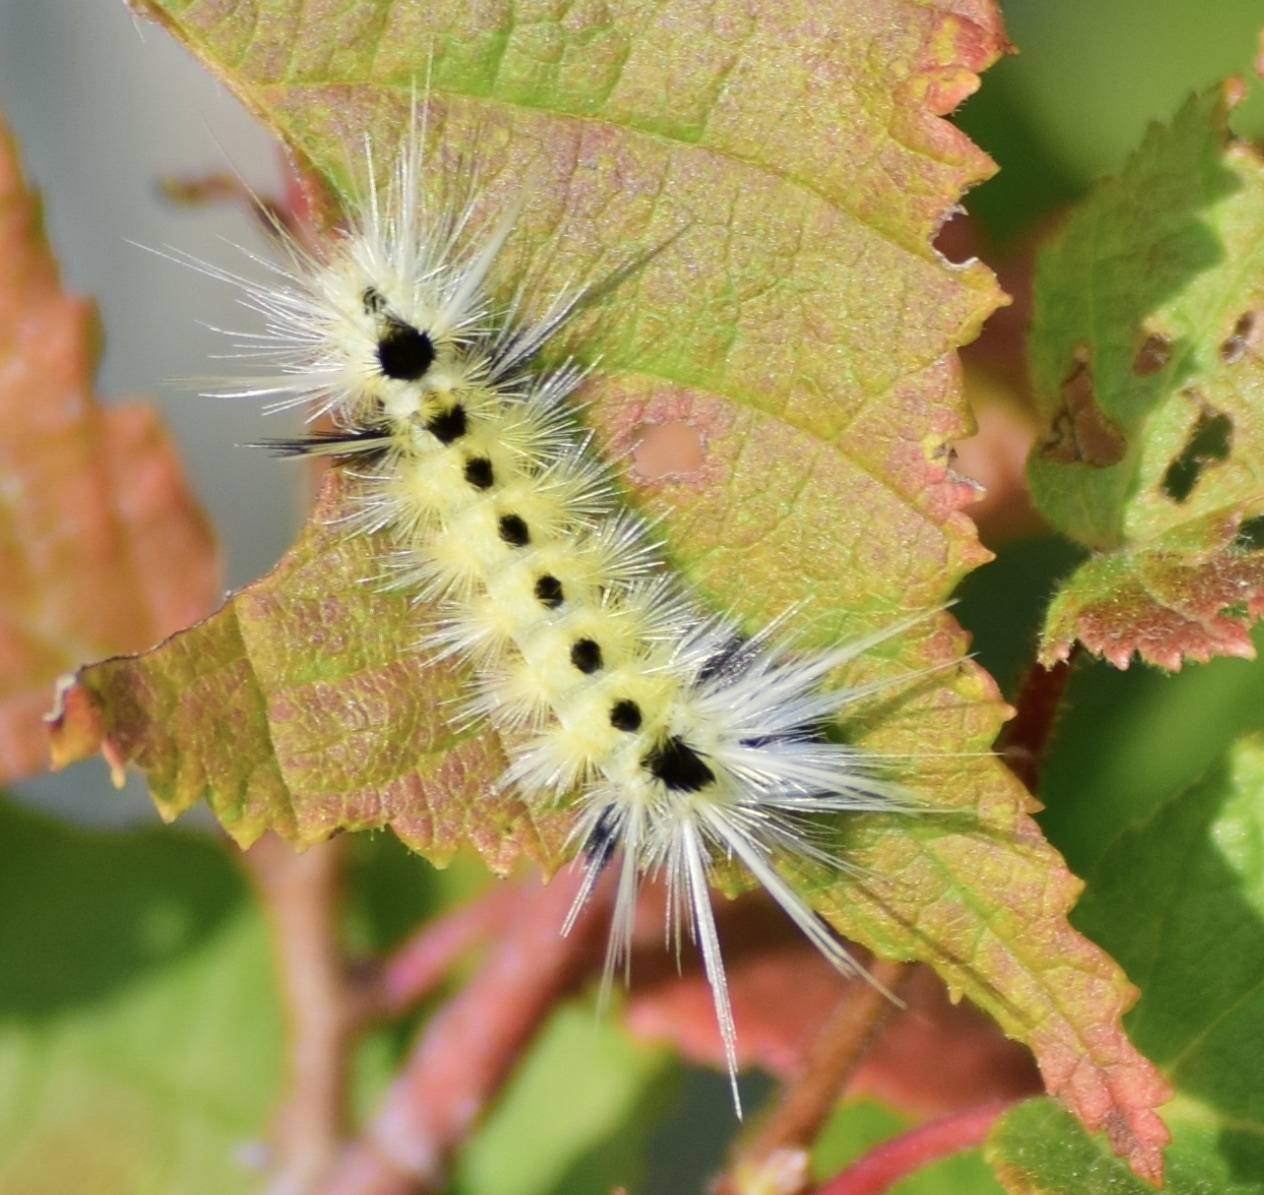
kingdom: Animalia
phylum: Arthropoda
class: Insecta
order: Lepidoptera
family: Erebidae
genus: Lophocampa
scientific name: Lophocampa maculata
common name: Spotted tussock moth
